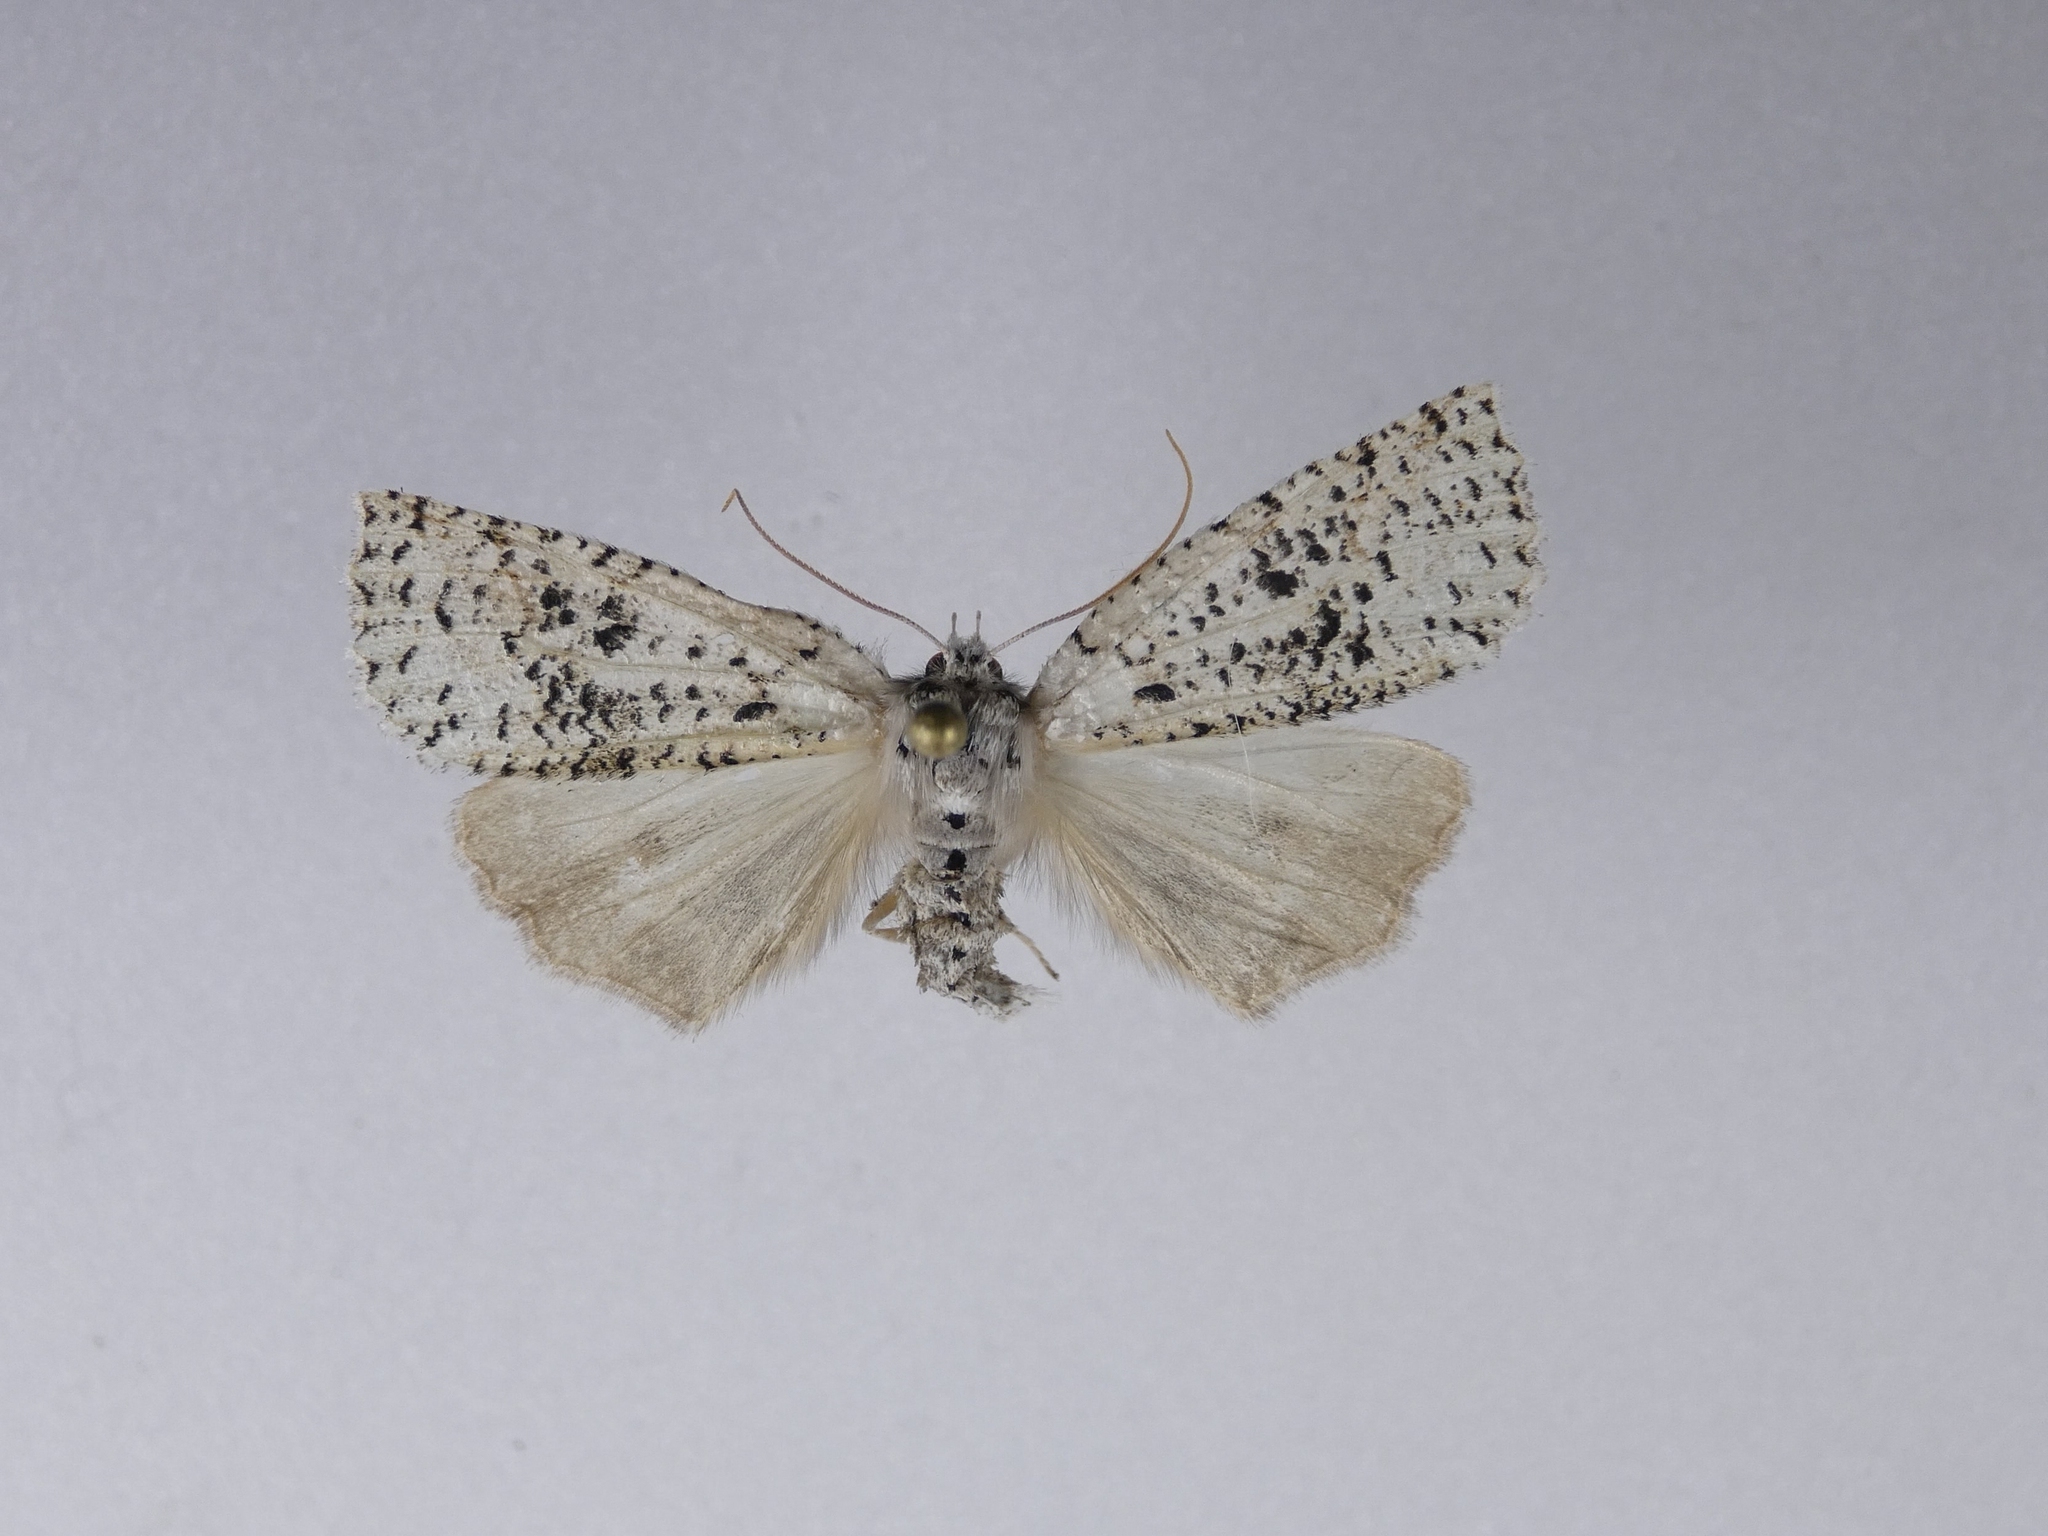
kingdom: Animalia
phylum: Arthropoda
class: Insecta
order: Lepidoptera
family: Geometridae
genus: Declana
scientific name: Declana floccosa
